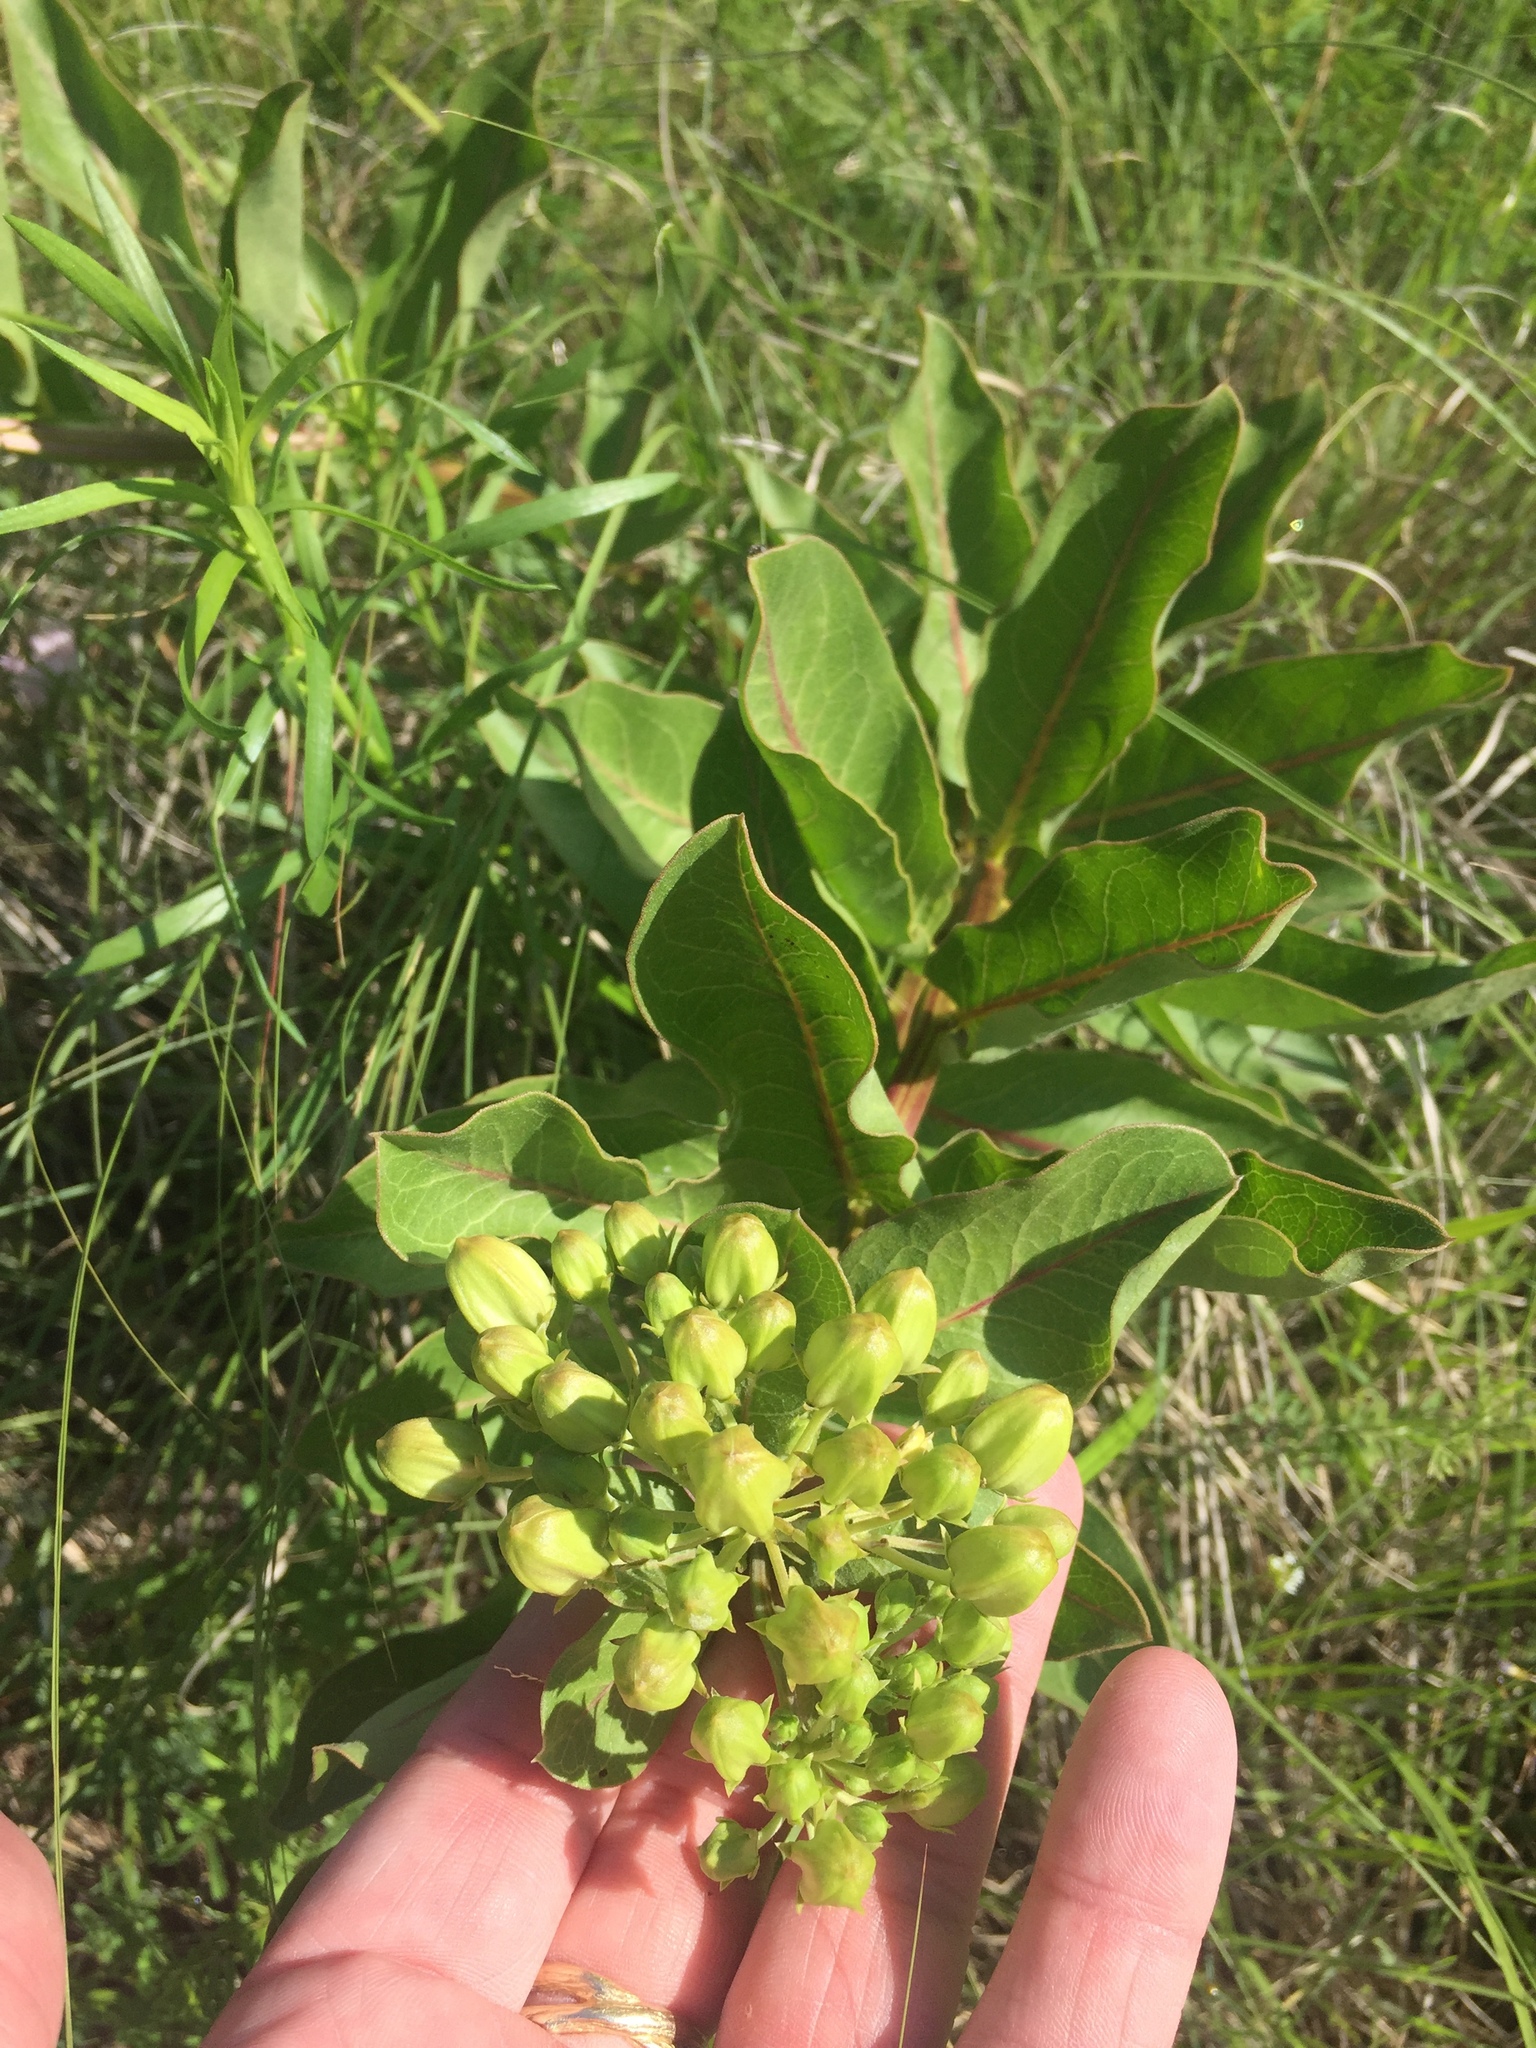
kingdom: Plantae
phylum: Tracheophyta
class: Magnoliopsida
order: Gentianales
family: Apocynaceae
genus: Asclepias
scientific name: Asclepias viridis
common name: Antelope-horns
